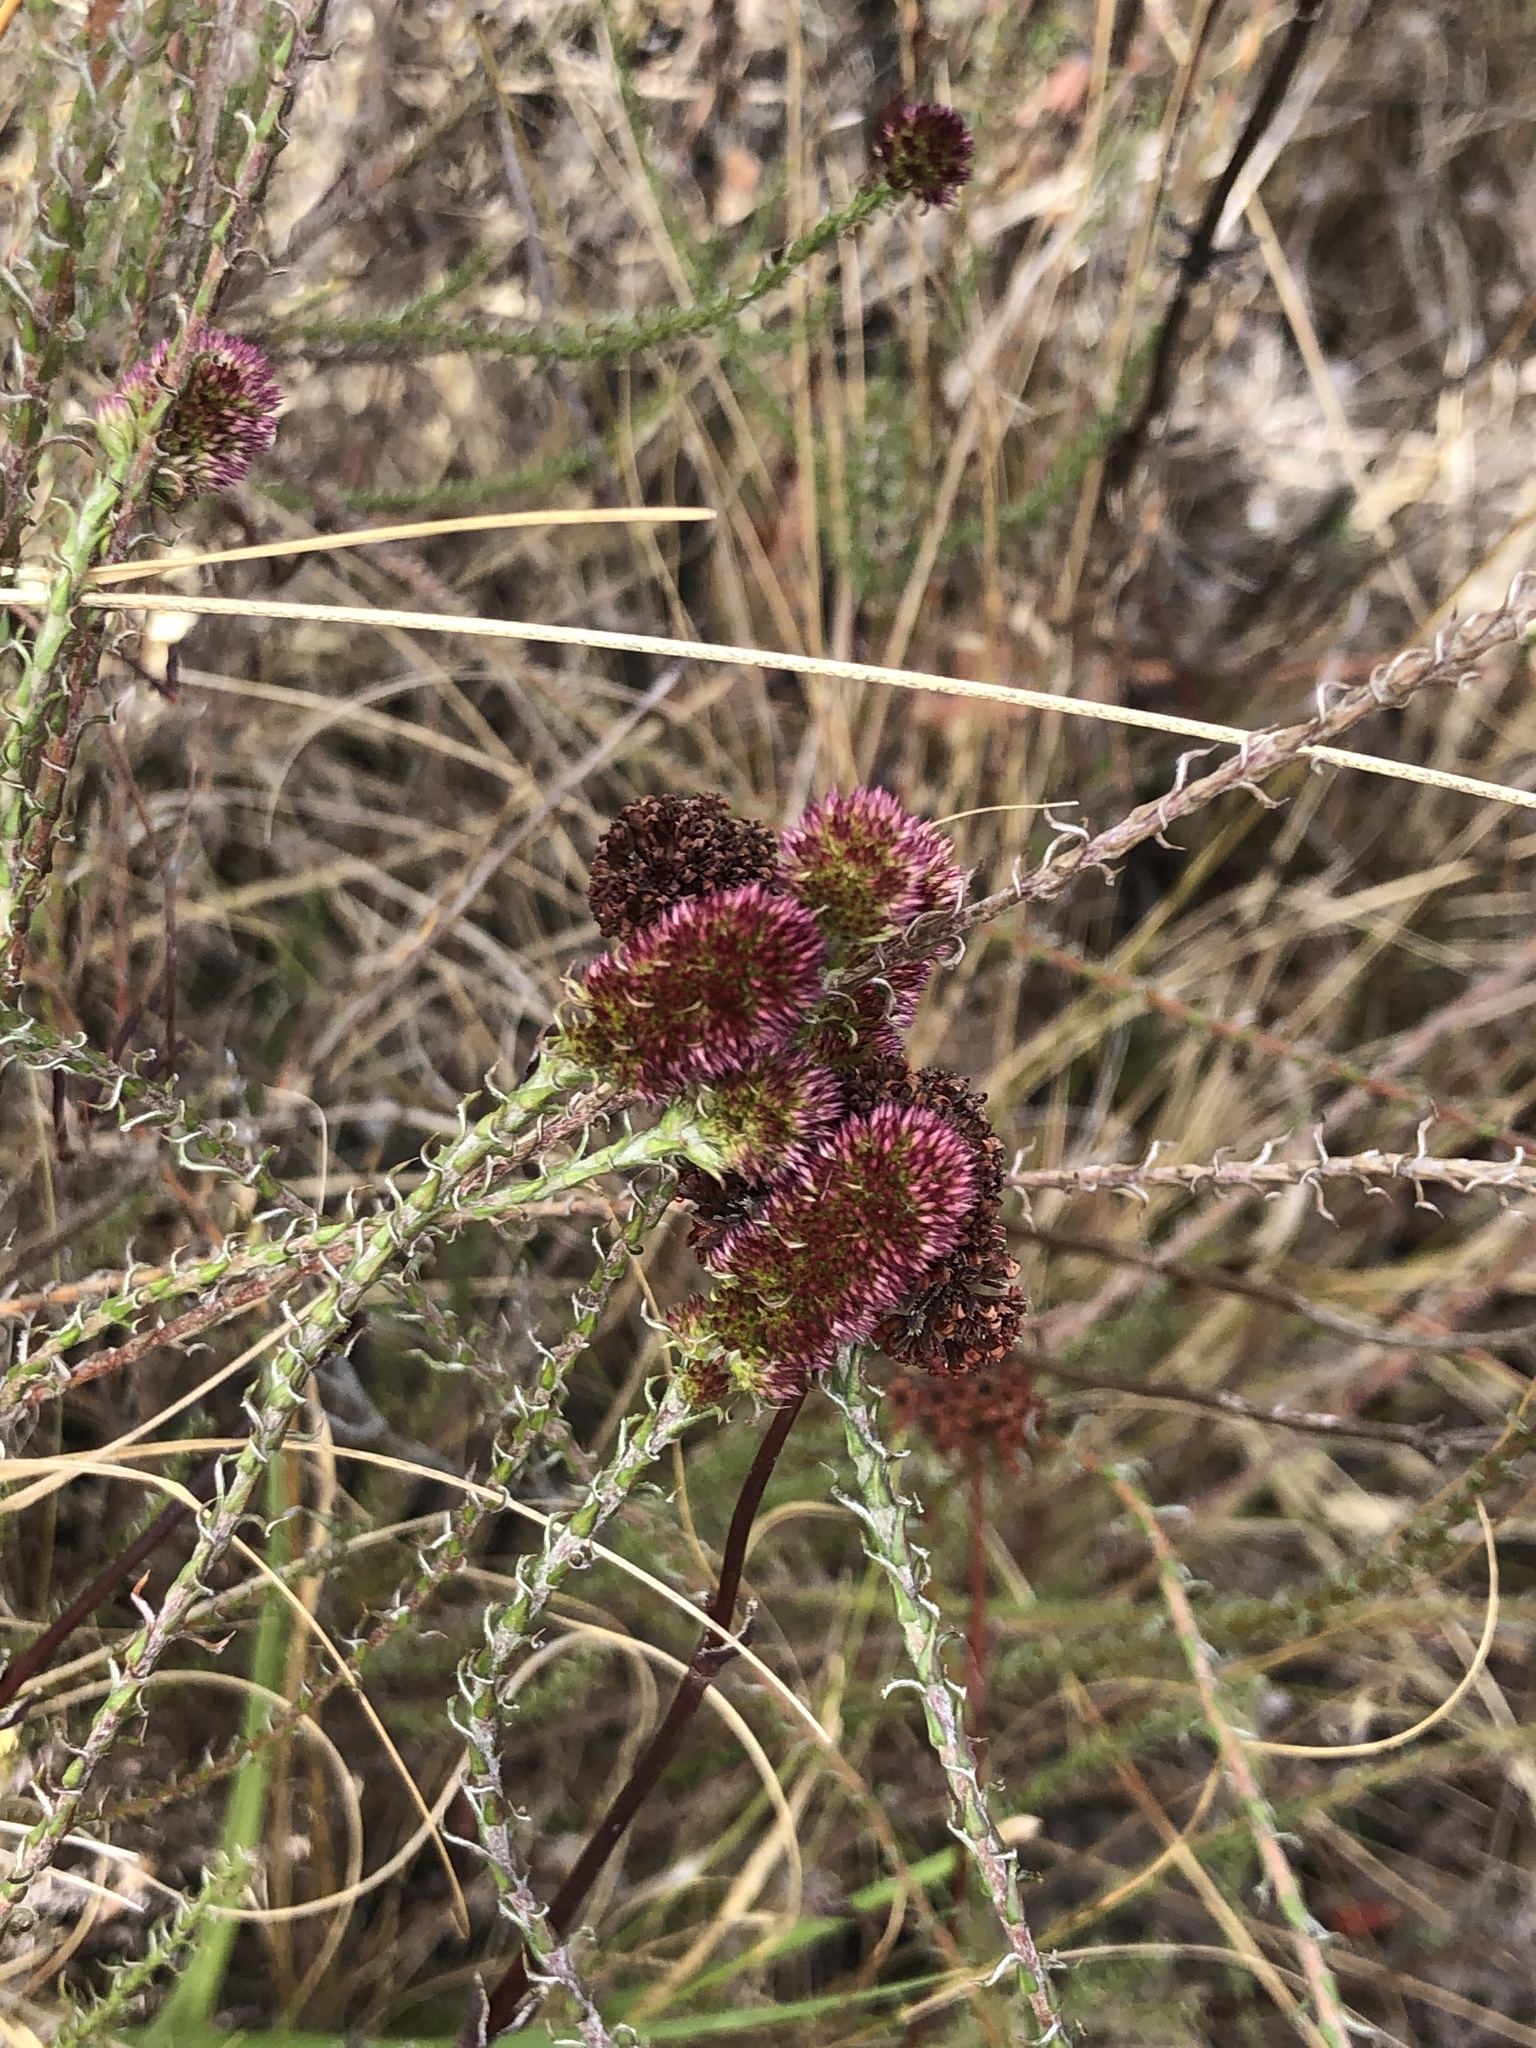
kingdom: Plantae
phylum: Tracheophyta
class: Magnoliopsida
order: Asterales
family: Asteraceae
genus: Stoebe
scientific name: Stoebe capitata
